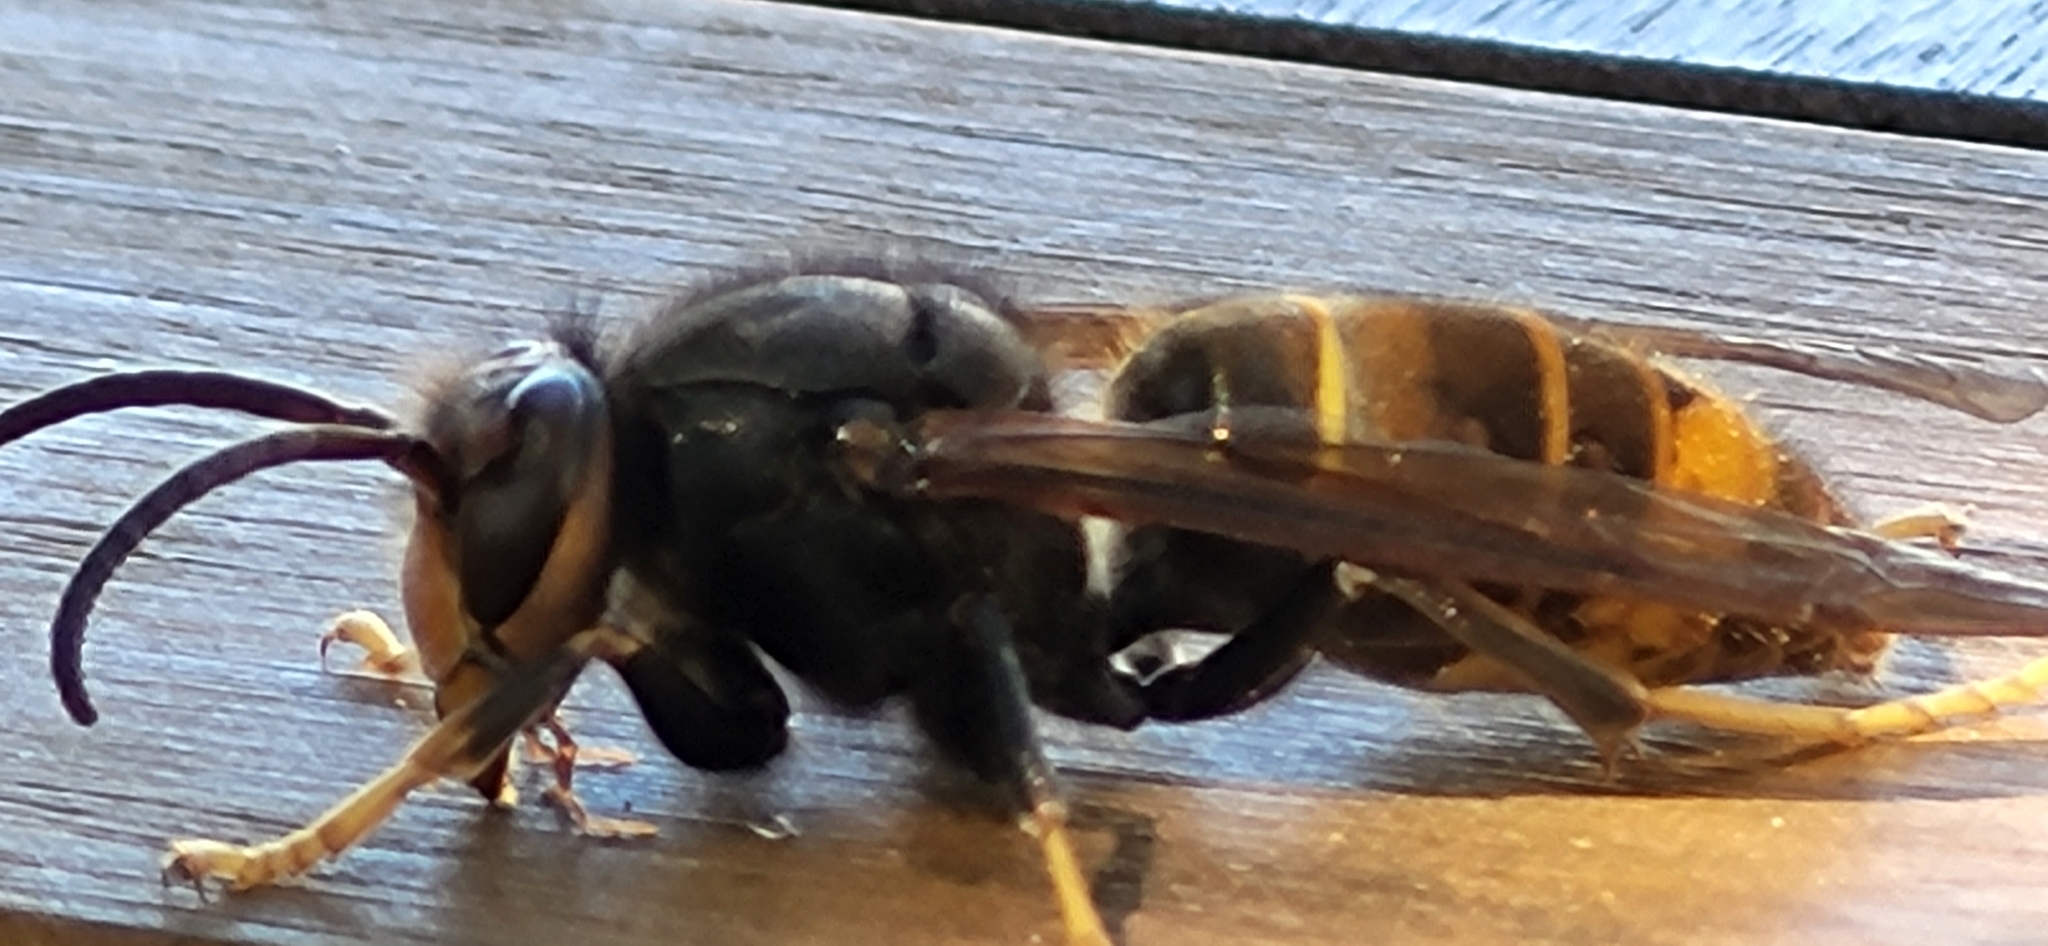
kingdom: Animalia
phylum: Arthropoda
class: Insecta
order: Hymenoptera
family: Vespidae
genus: Vespa
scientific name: Vespa velutina
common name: Asian hornet
